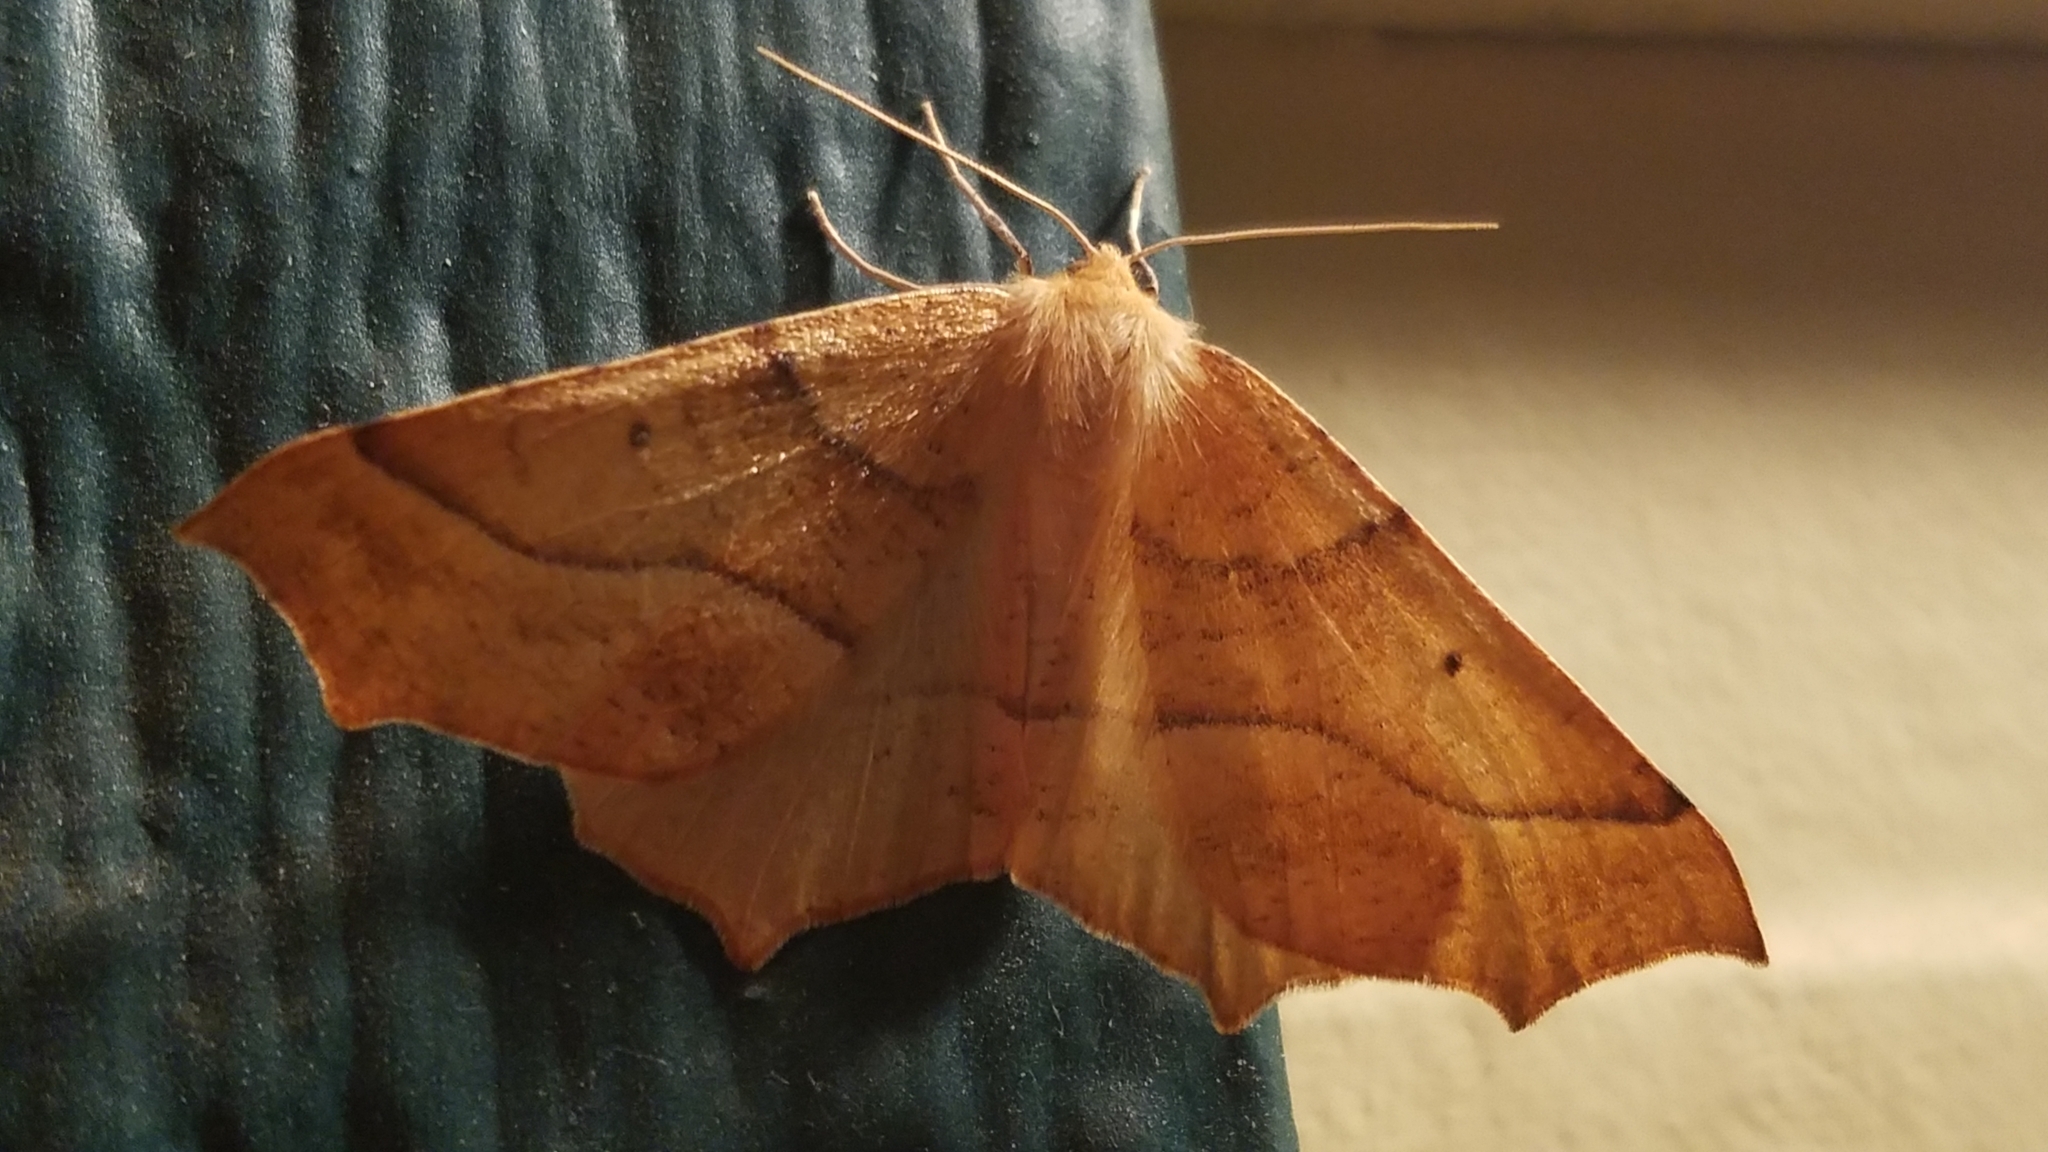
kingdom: Animalia
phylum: Arthropoda
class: Insecta
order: Lepidoptera
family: Geometridae
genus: Synaxis
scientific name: Synaxis jubararia
